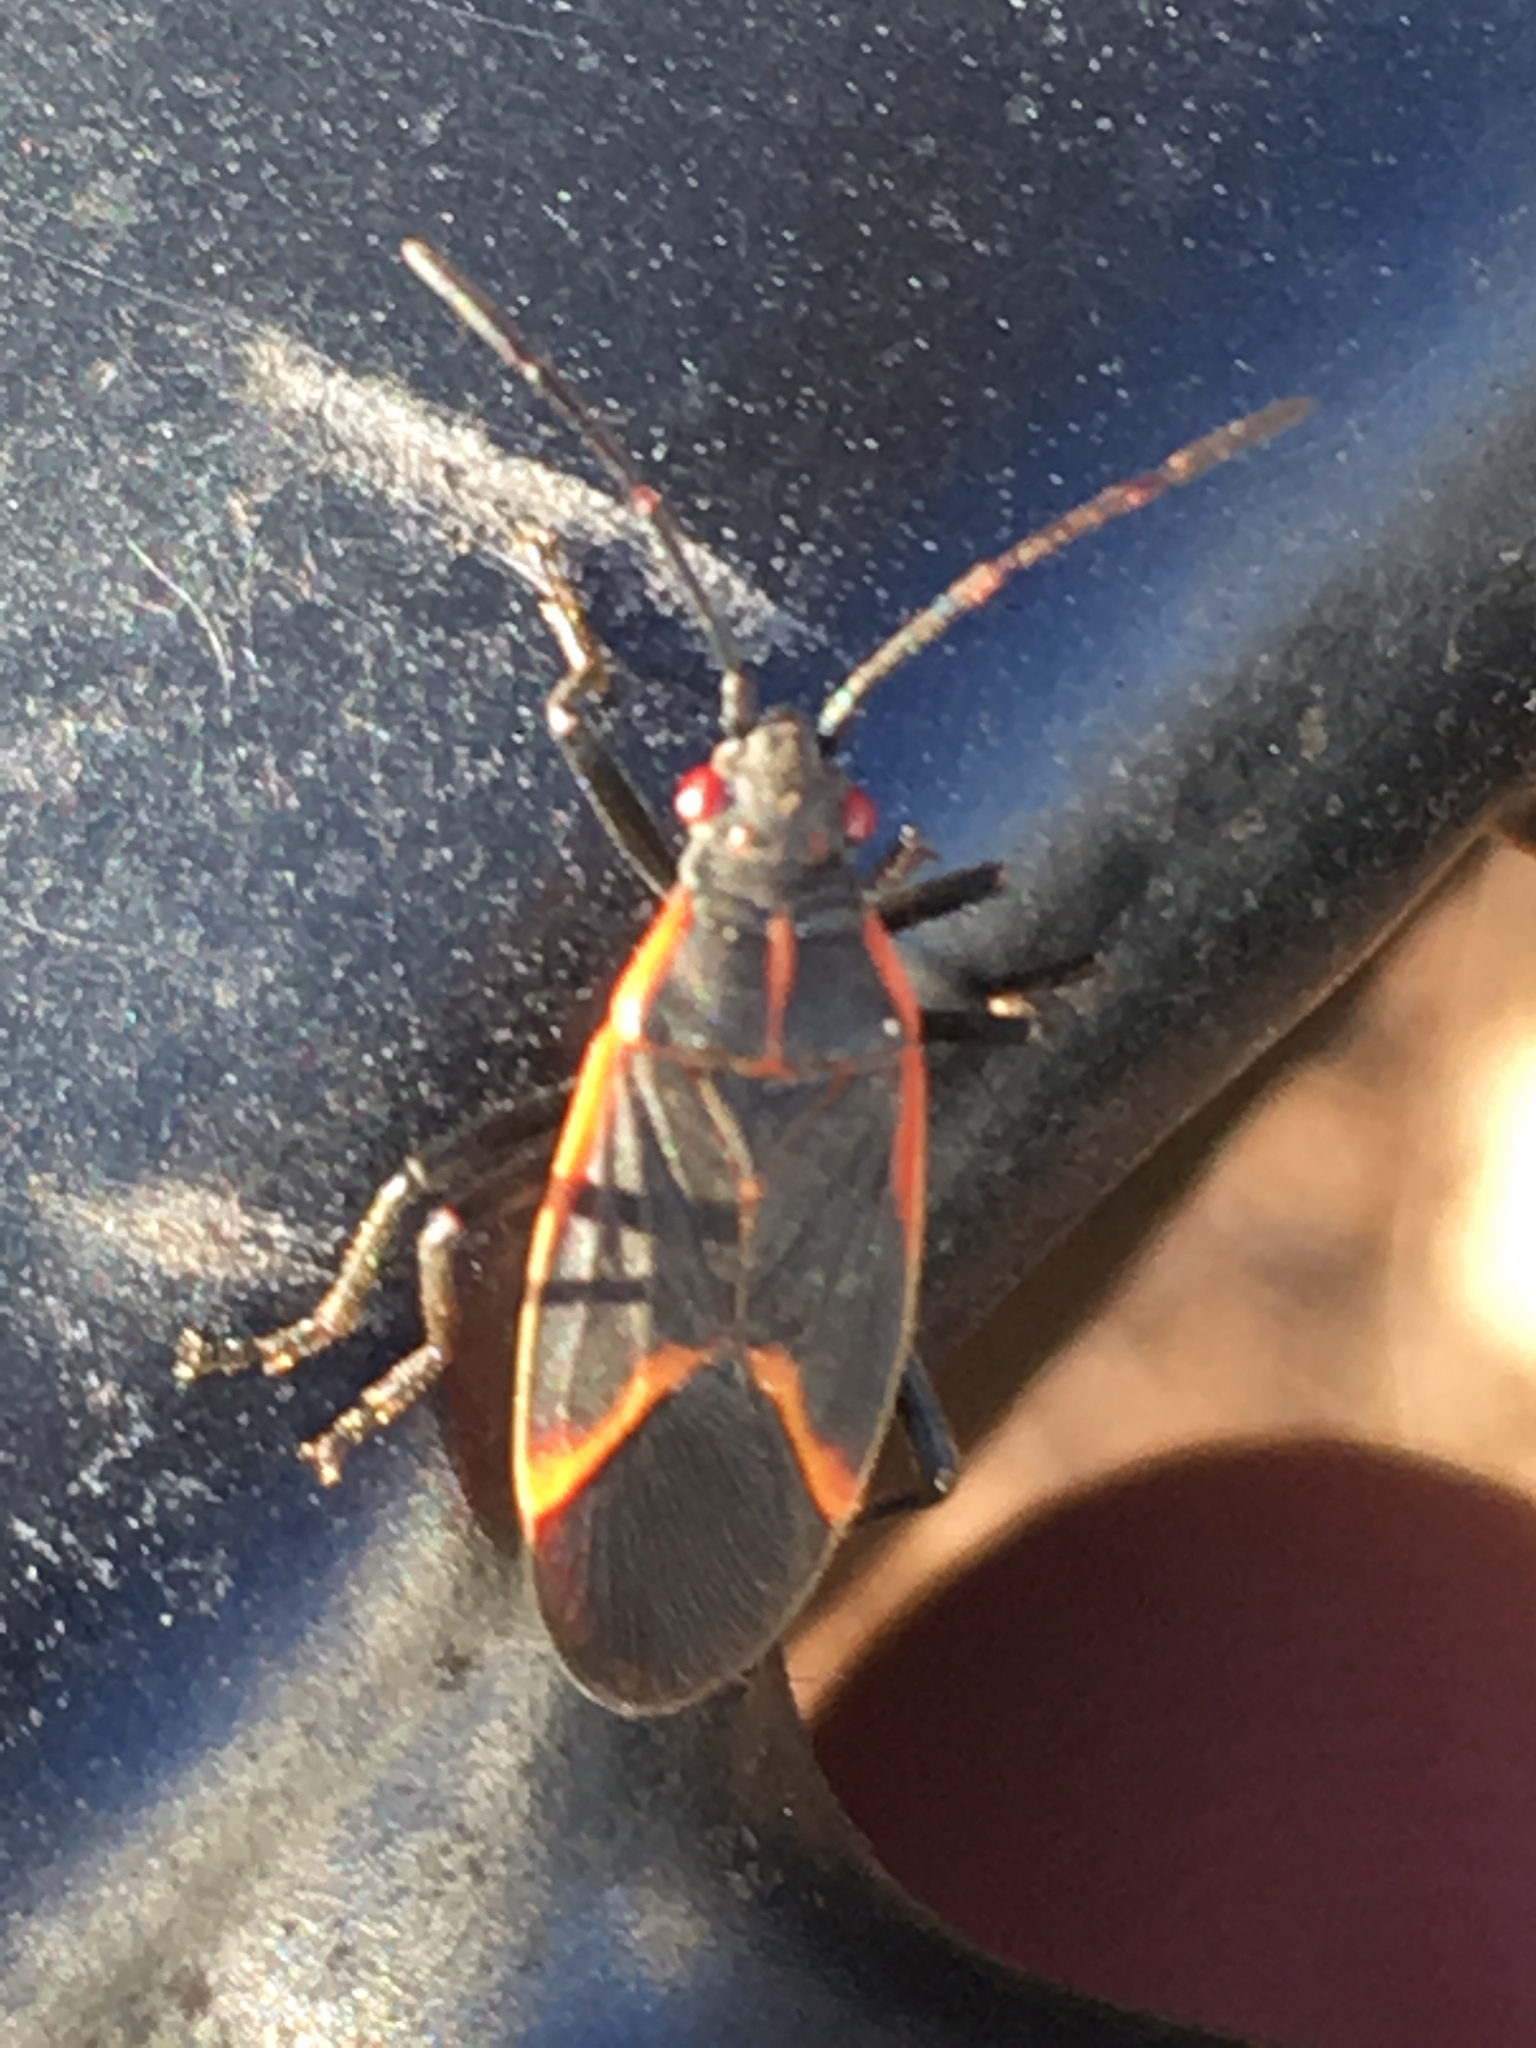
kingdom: Animalia
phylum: Arthropoda
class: Insecta
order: Hemiptera
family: Rhopalidae
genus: Boisea
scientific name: Boisea trivittata
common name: Boxelder bug
